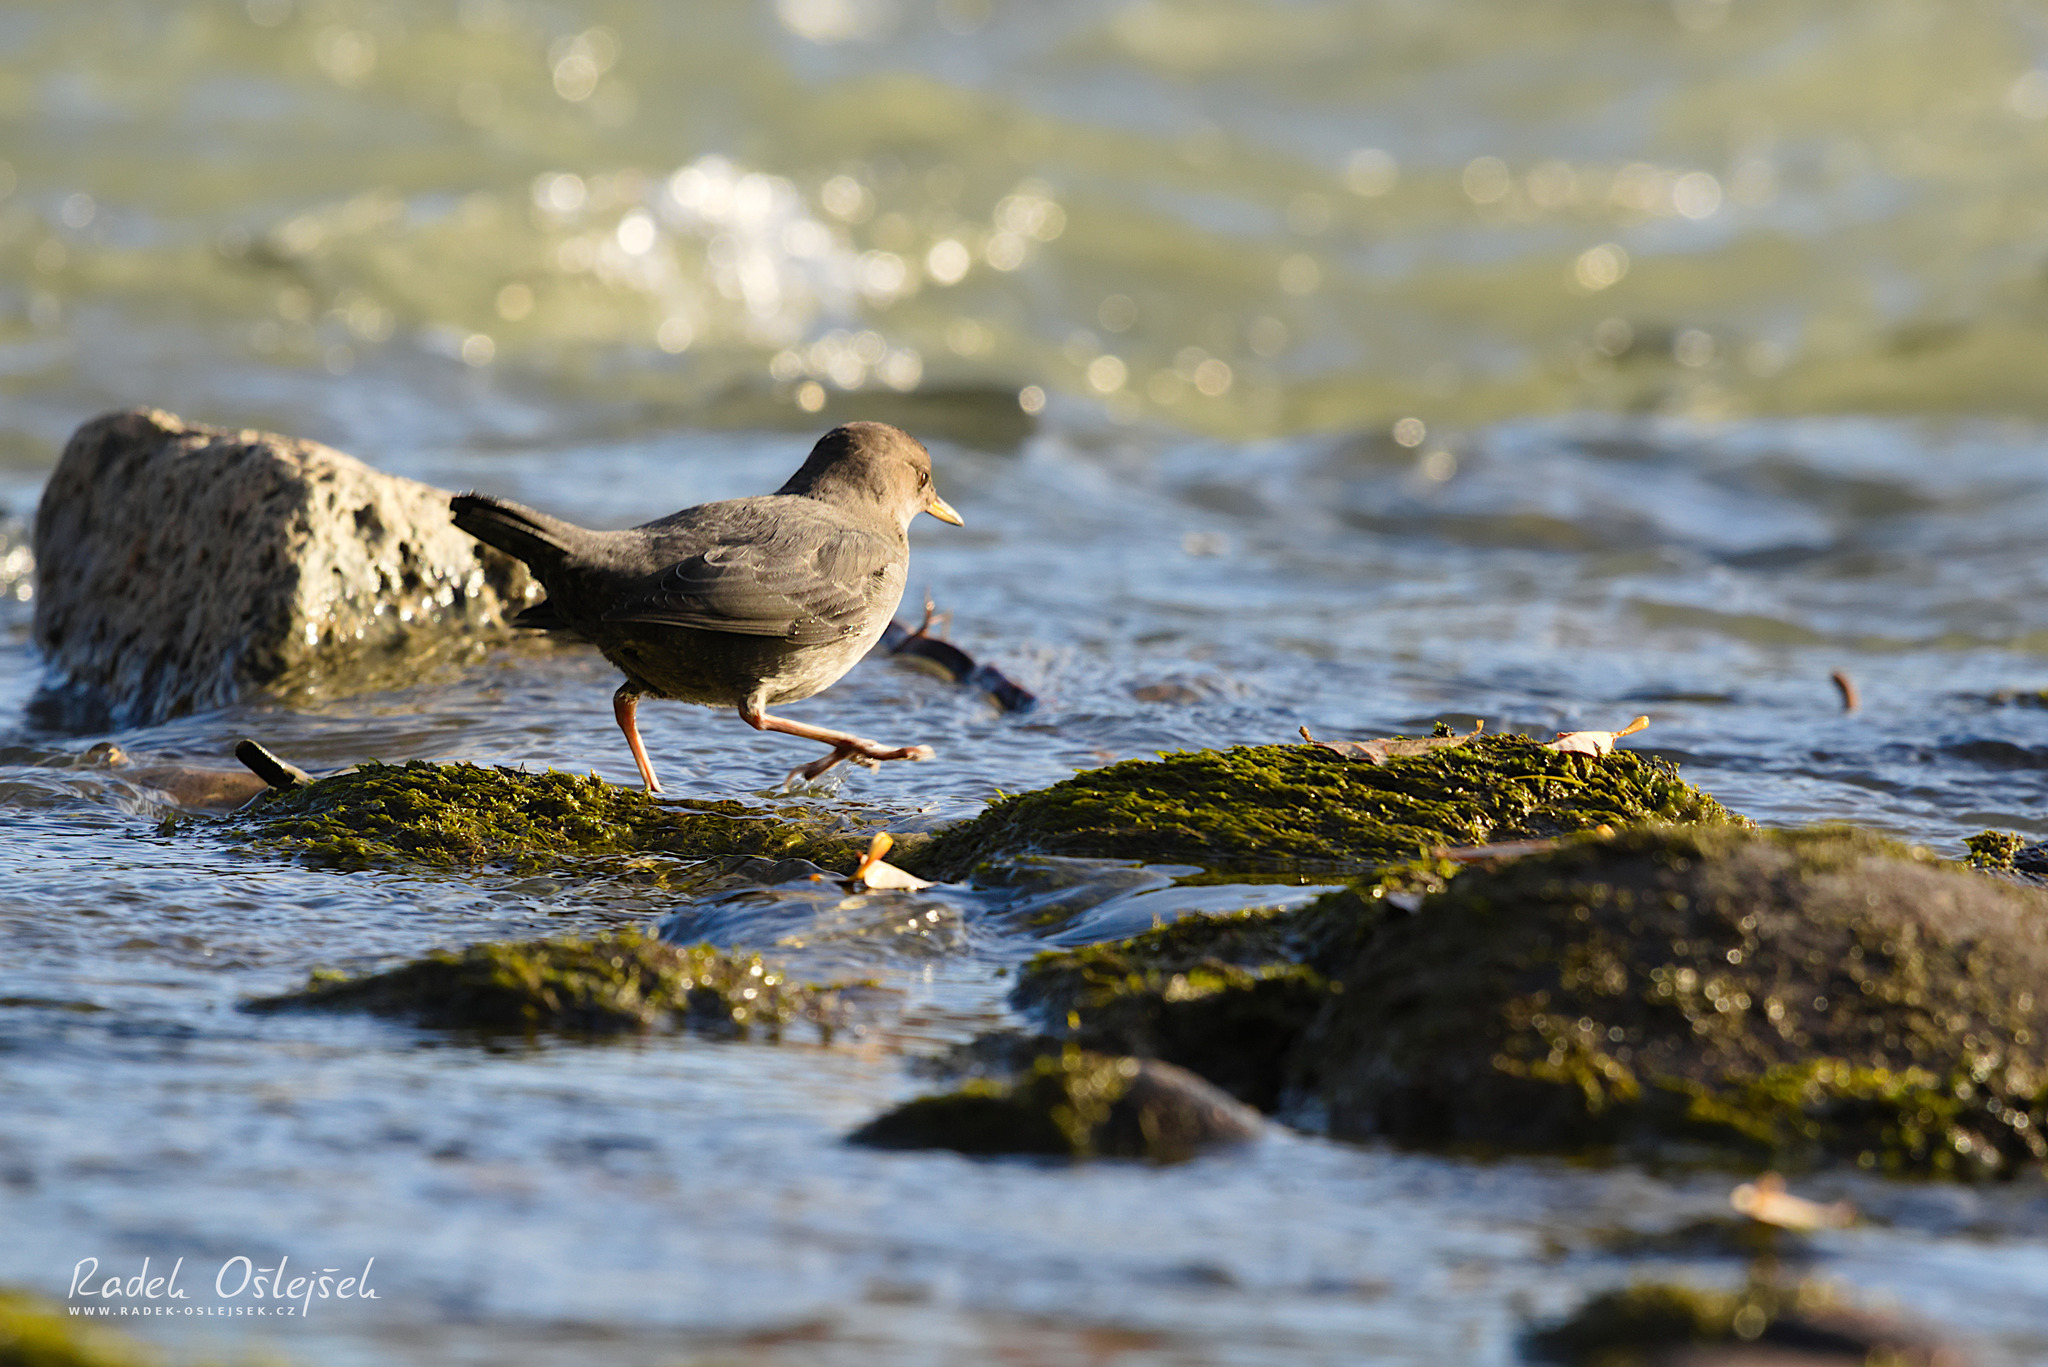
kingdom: Animalia
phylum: Chordata
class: Aves
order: Passeriformes
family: Cinclidae
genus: Cinclus
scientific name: Cinclus mexicanus
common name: American dipper
